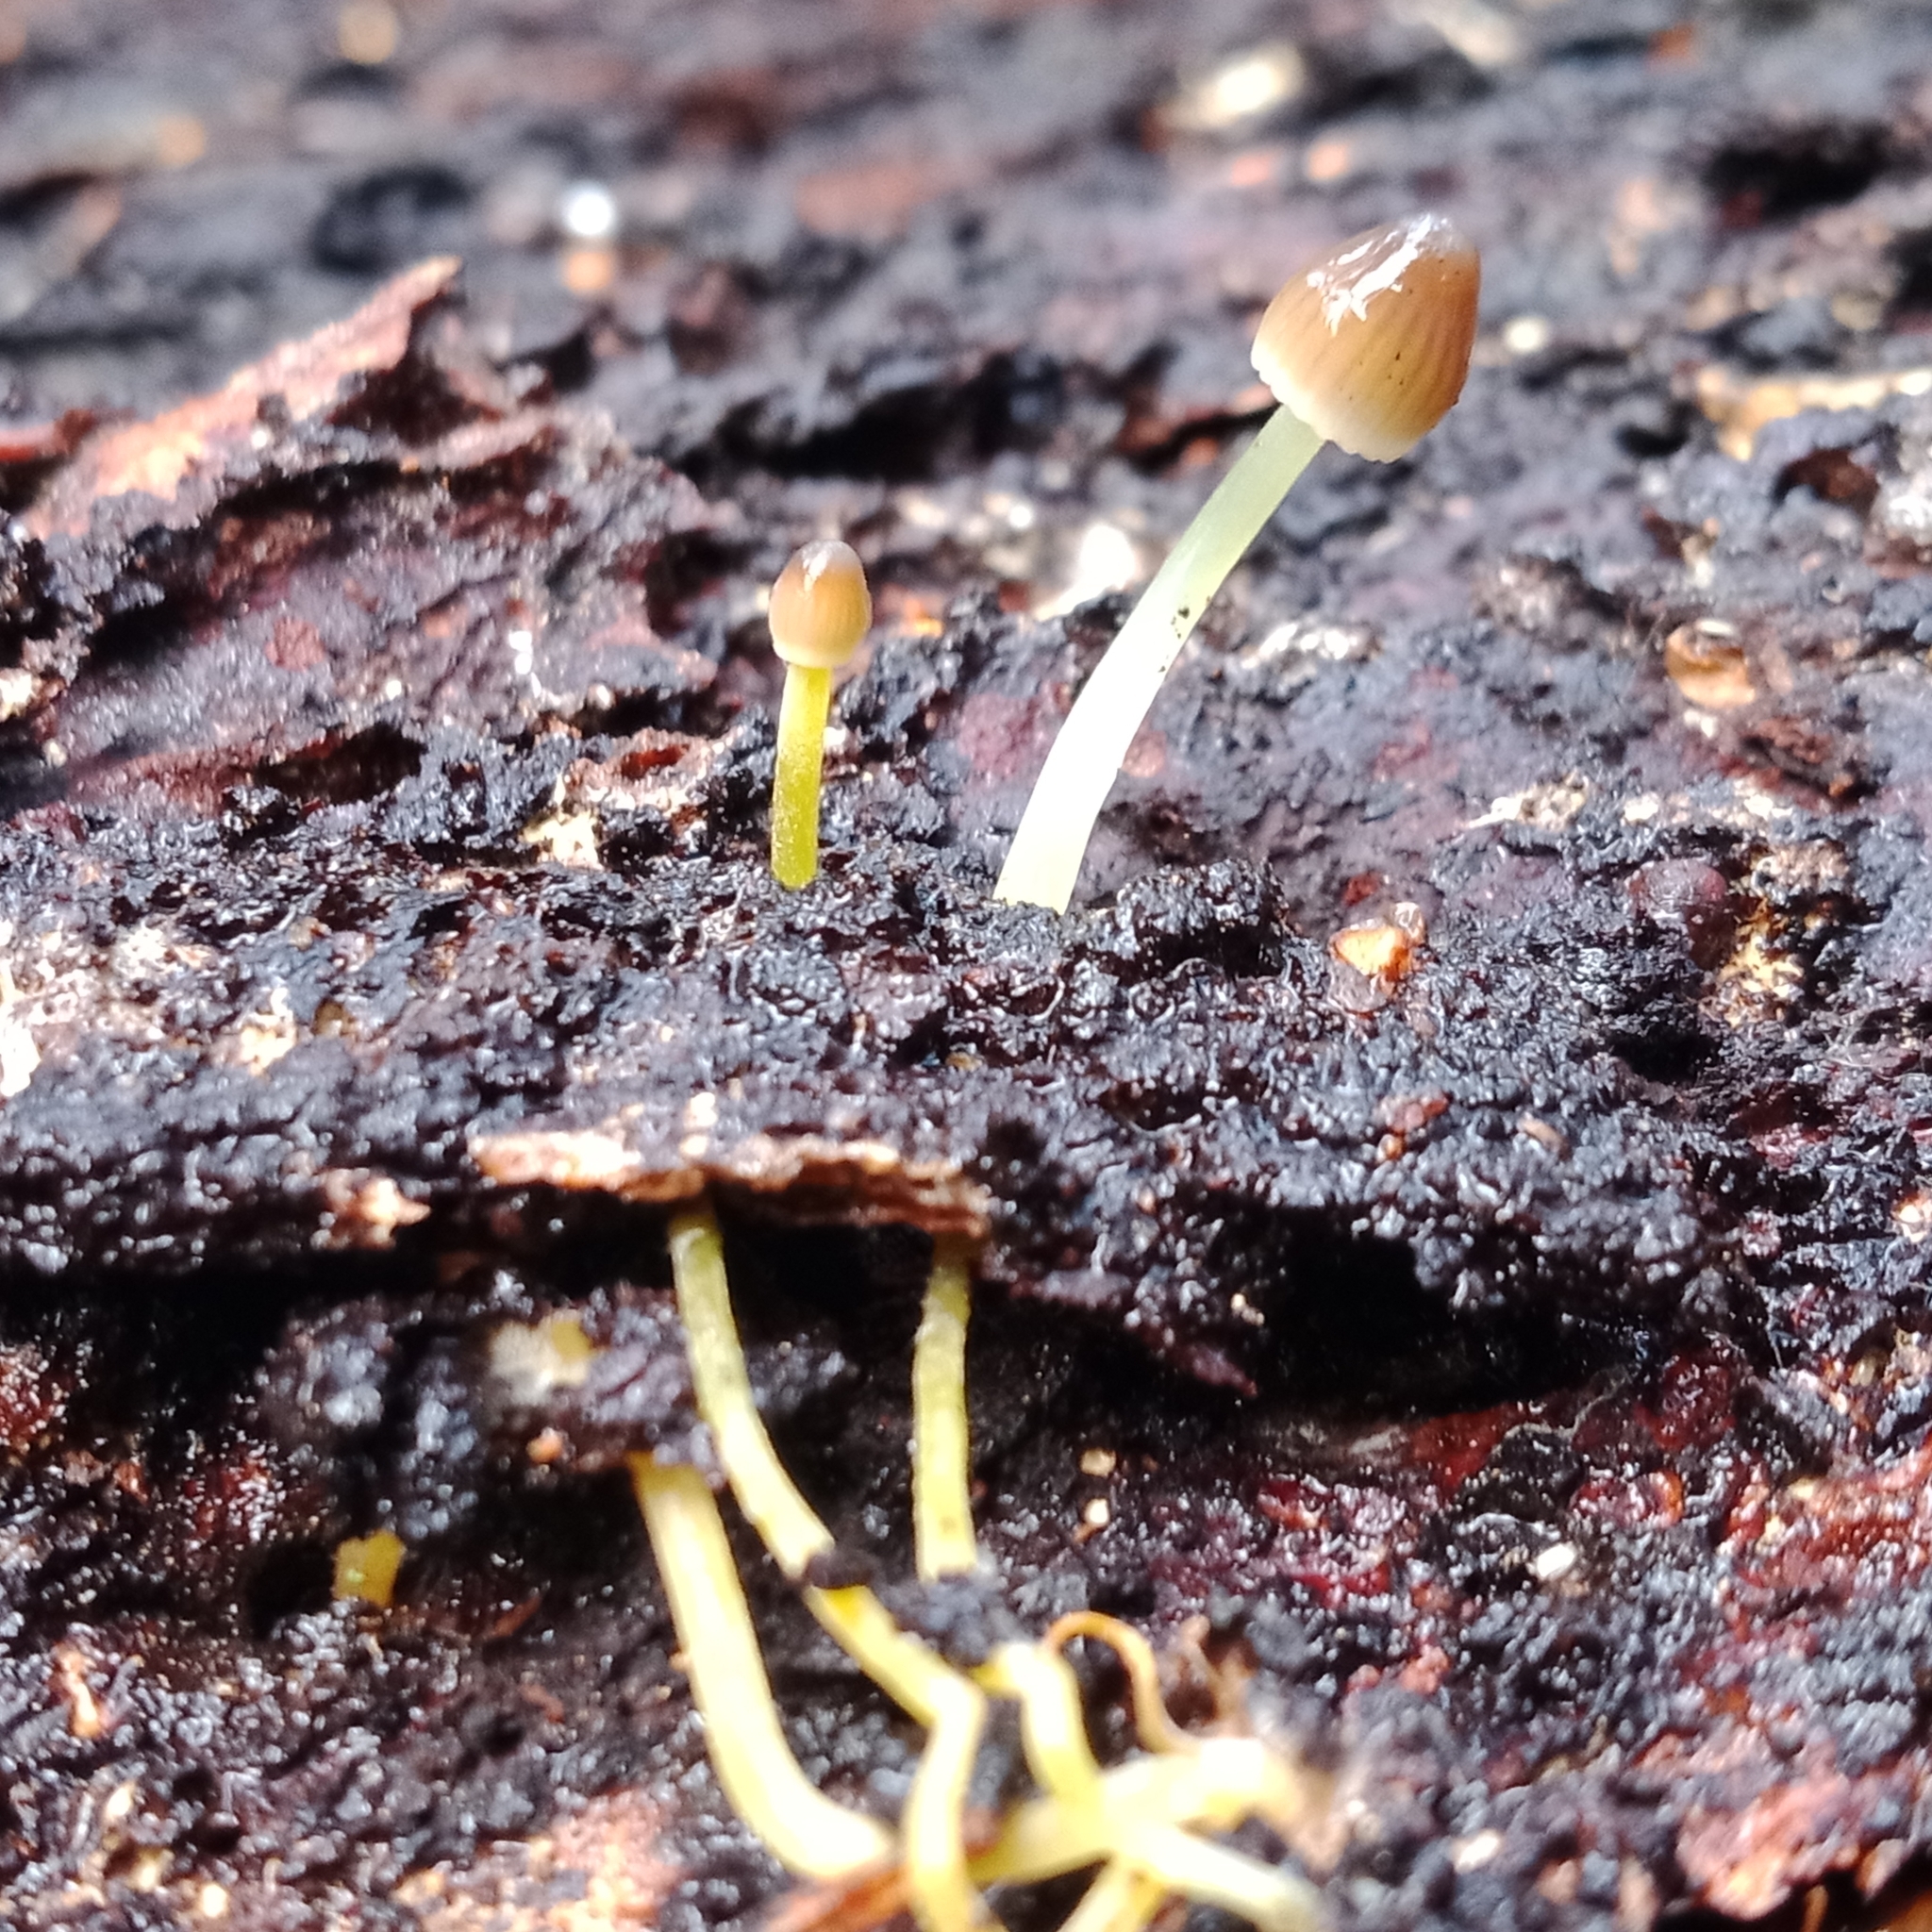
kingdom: Fungi
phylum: Basidiomycota
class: Agaricomycetes
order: Agaricales
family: Mycenaceae
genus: Mycena
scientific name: Mycena epipterygia
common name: Yellowleg bonnet
